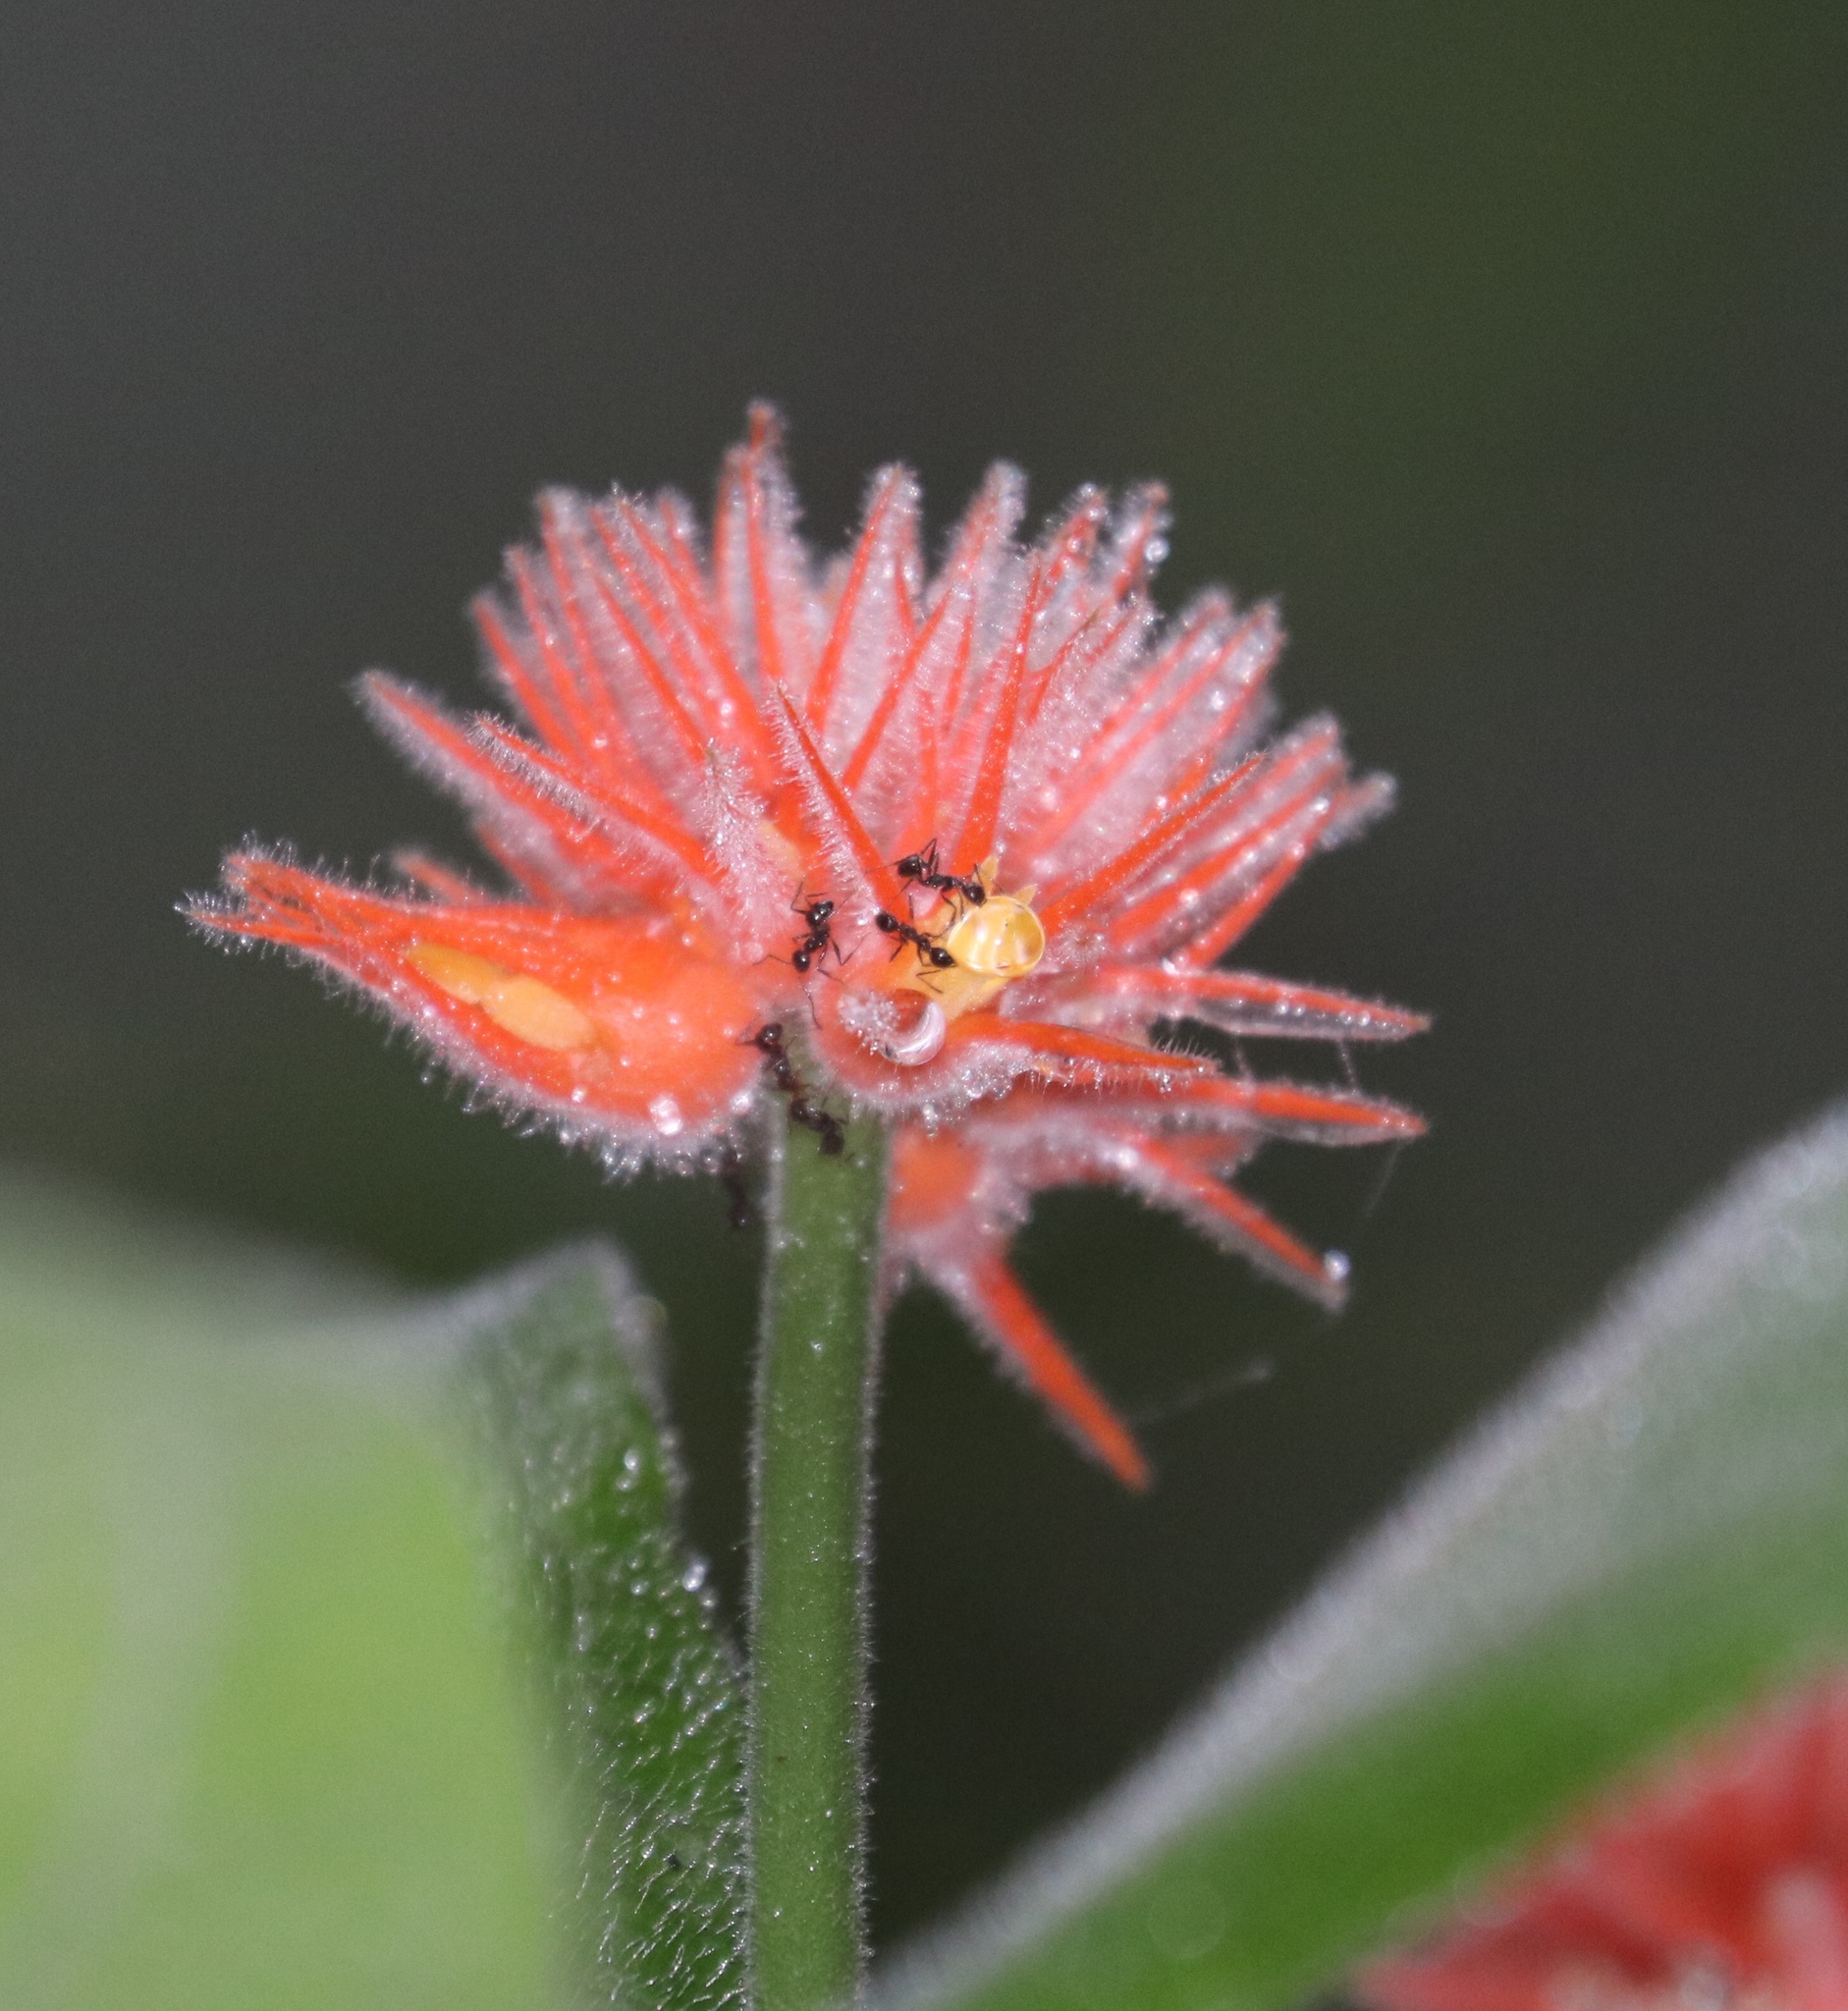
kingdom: Plantae
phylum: Tracheophyta
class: Magnoliopsida
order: Cucurbitales
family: Cucurbitaceae
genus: Gurania
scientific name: Gurania makoyana
